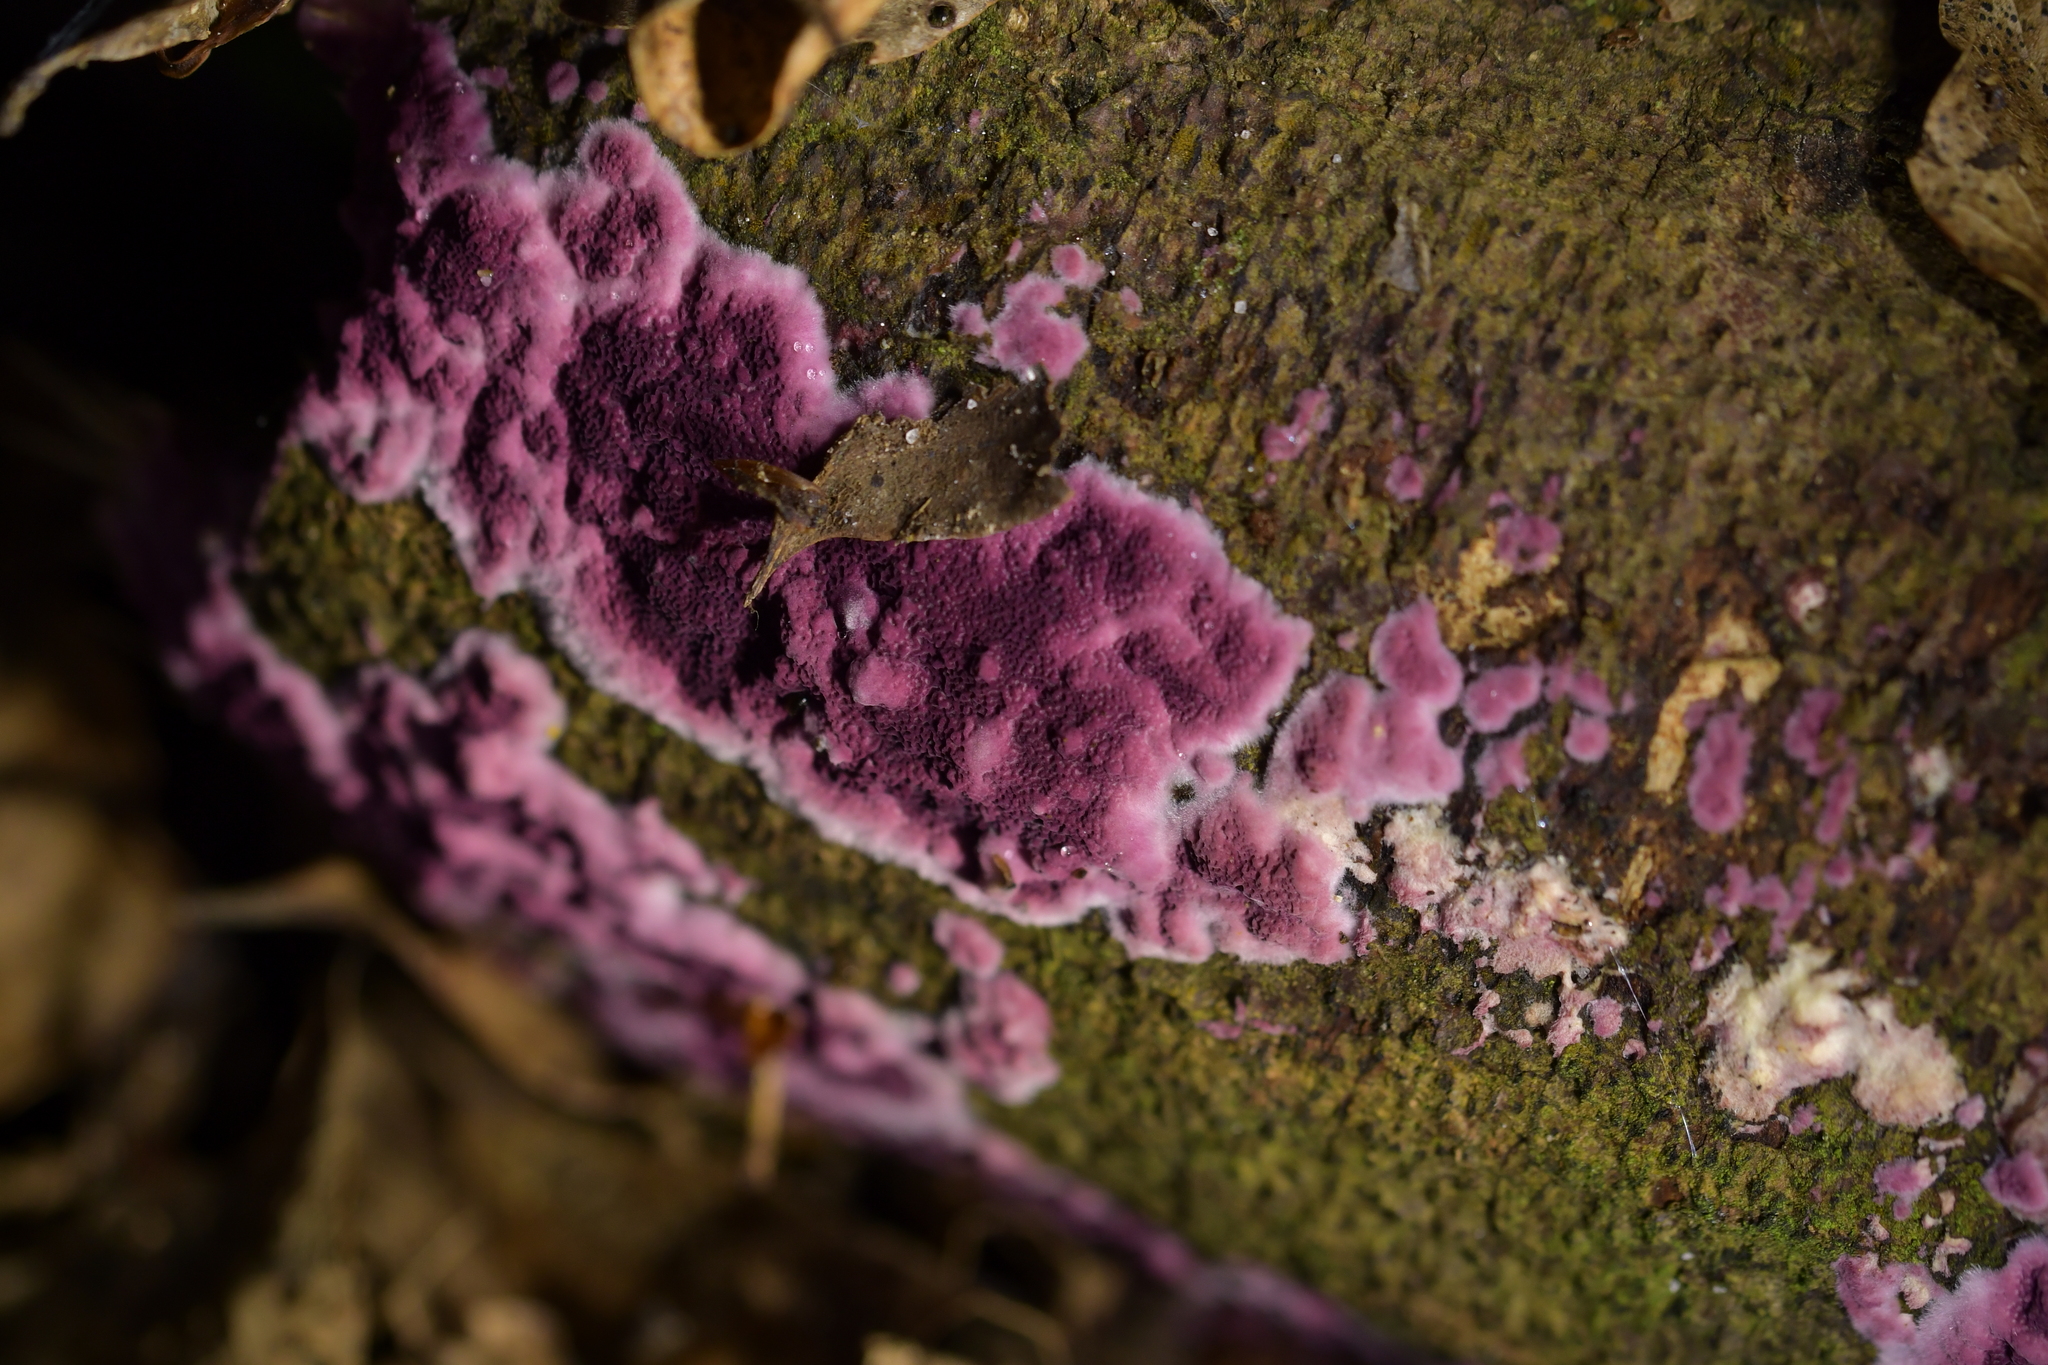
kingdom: Fungi
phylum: Basidiomycota
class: Agaricomycetes
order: Polyporales
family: Irpicaceae
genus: Byssomerulius
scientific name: Byssomerulius psittacinus
